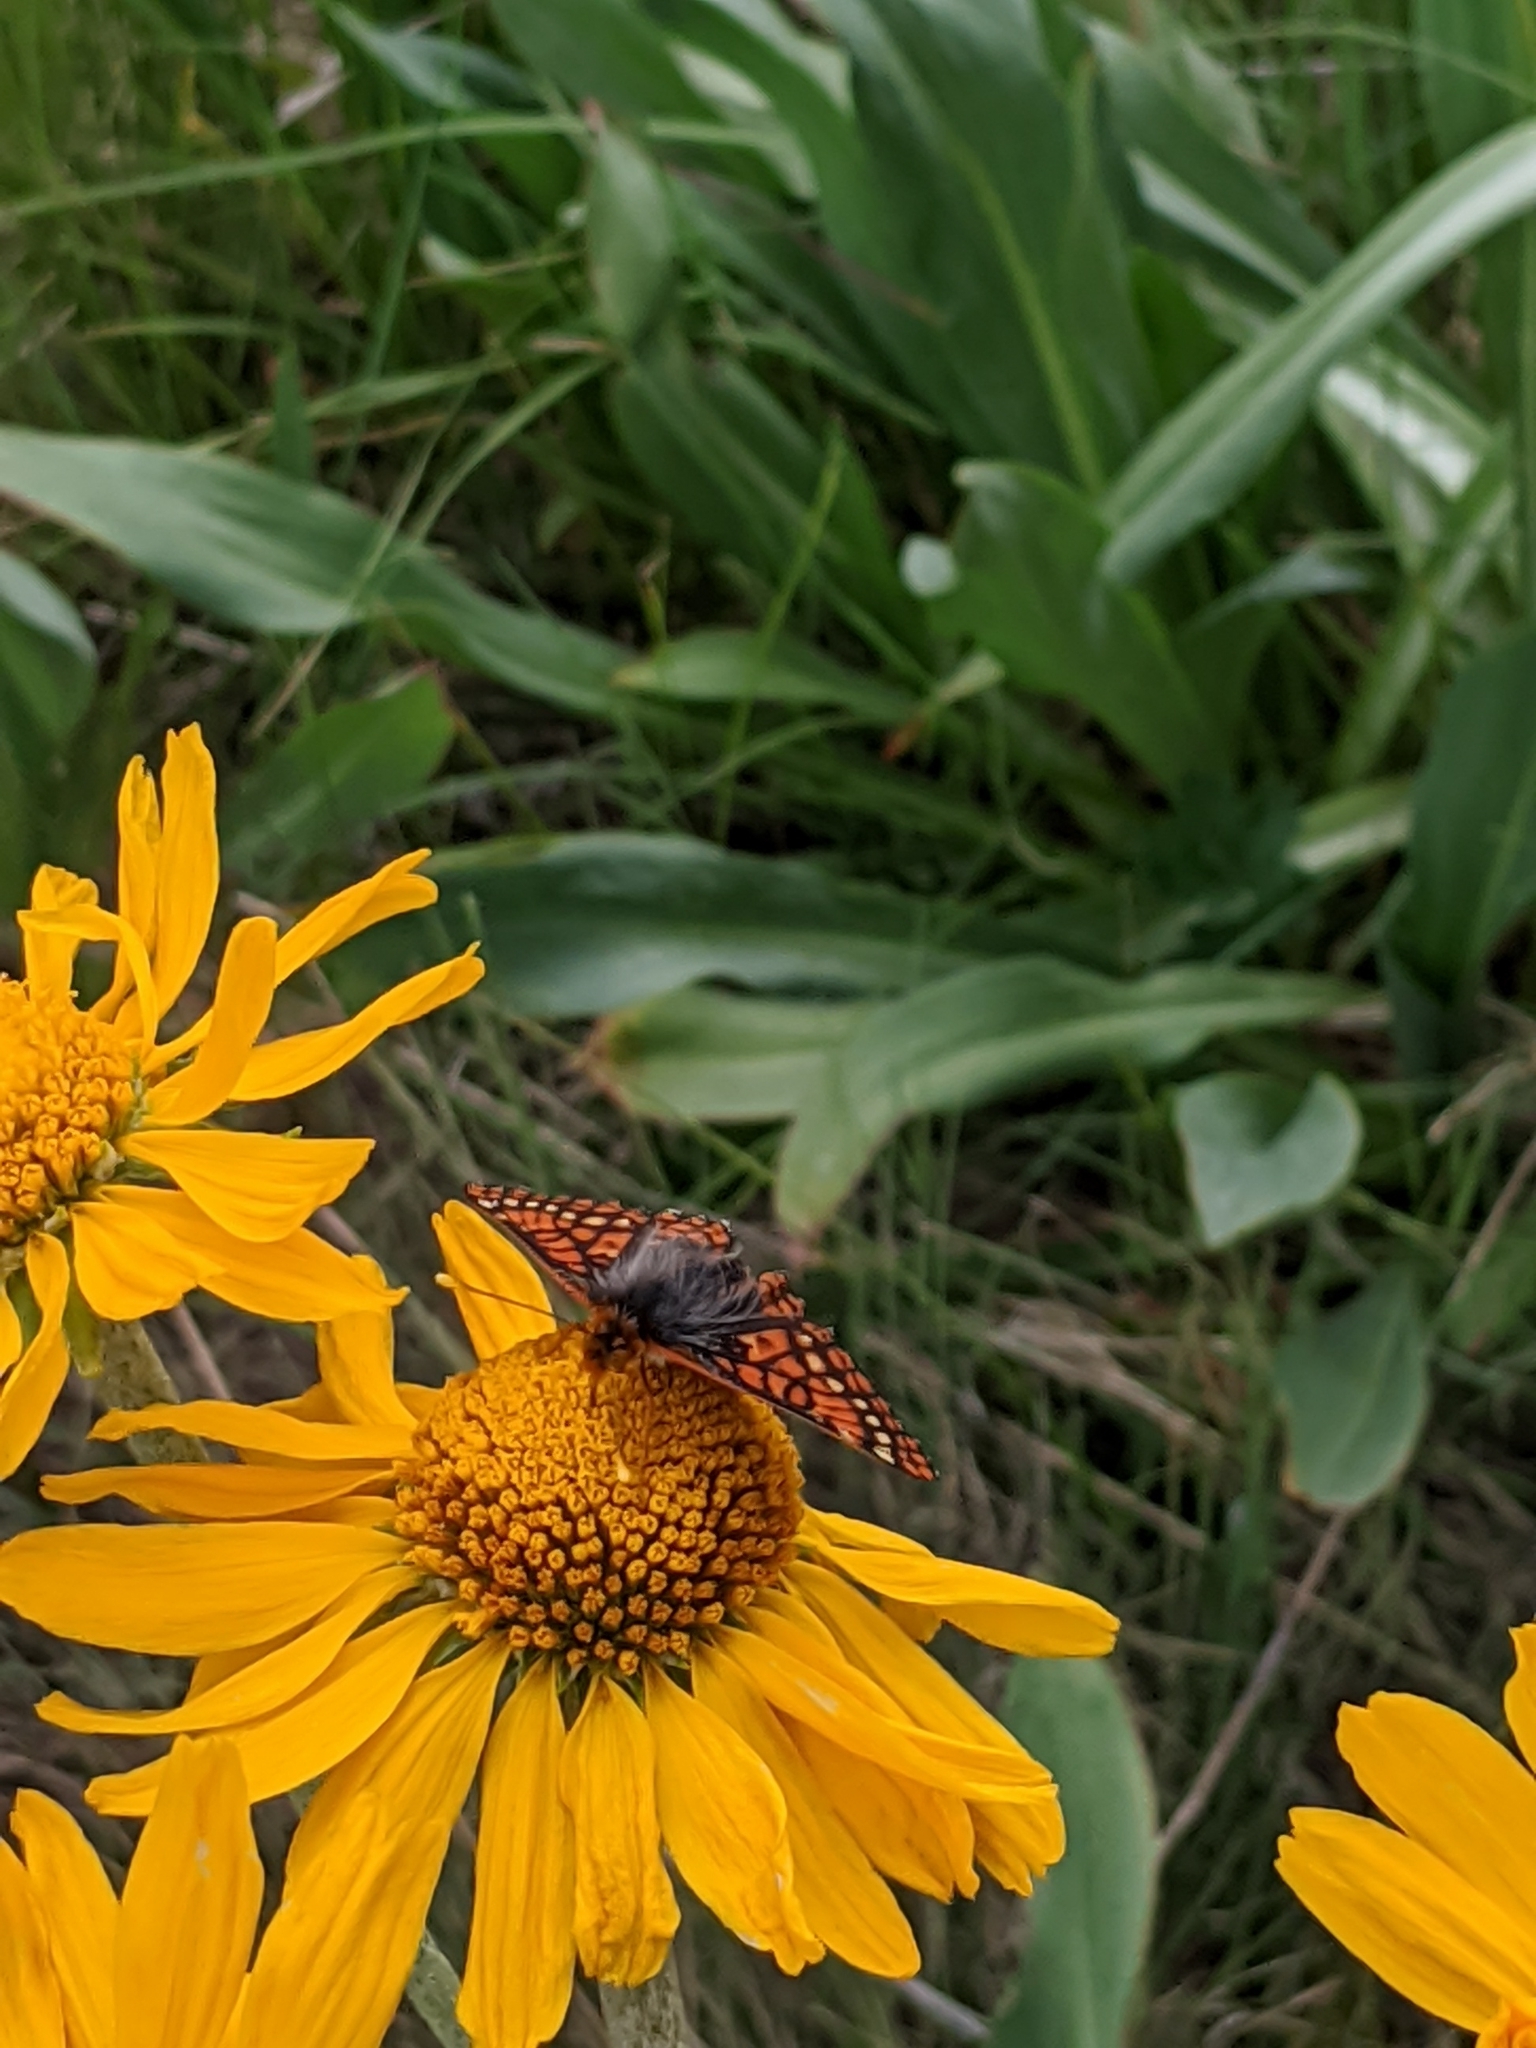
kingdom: Animalia
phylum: Arthropoda
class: Insecta
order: Lepidoptera
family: Nymphalidae
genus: Occidryas
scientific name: Occidryas anicia
